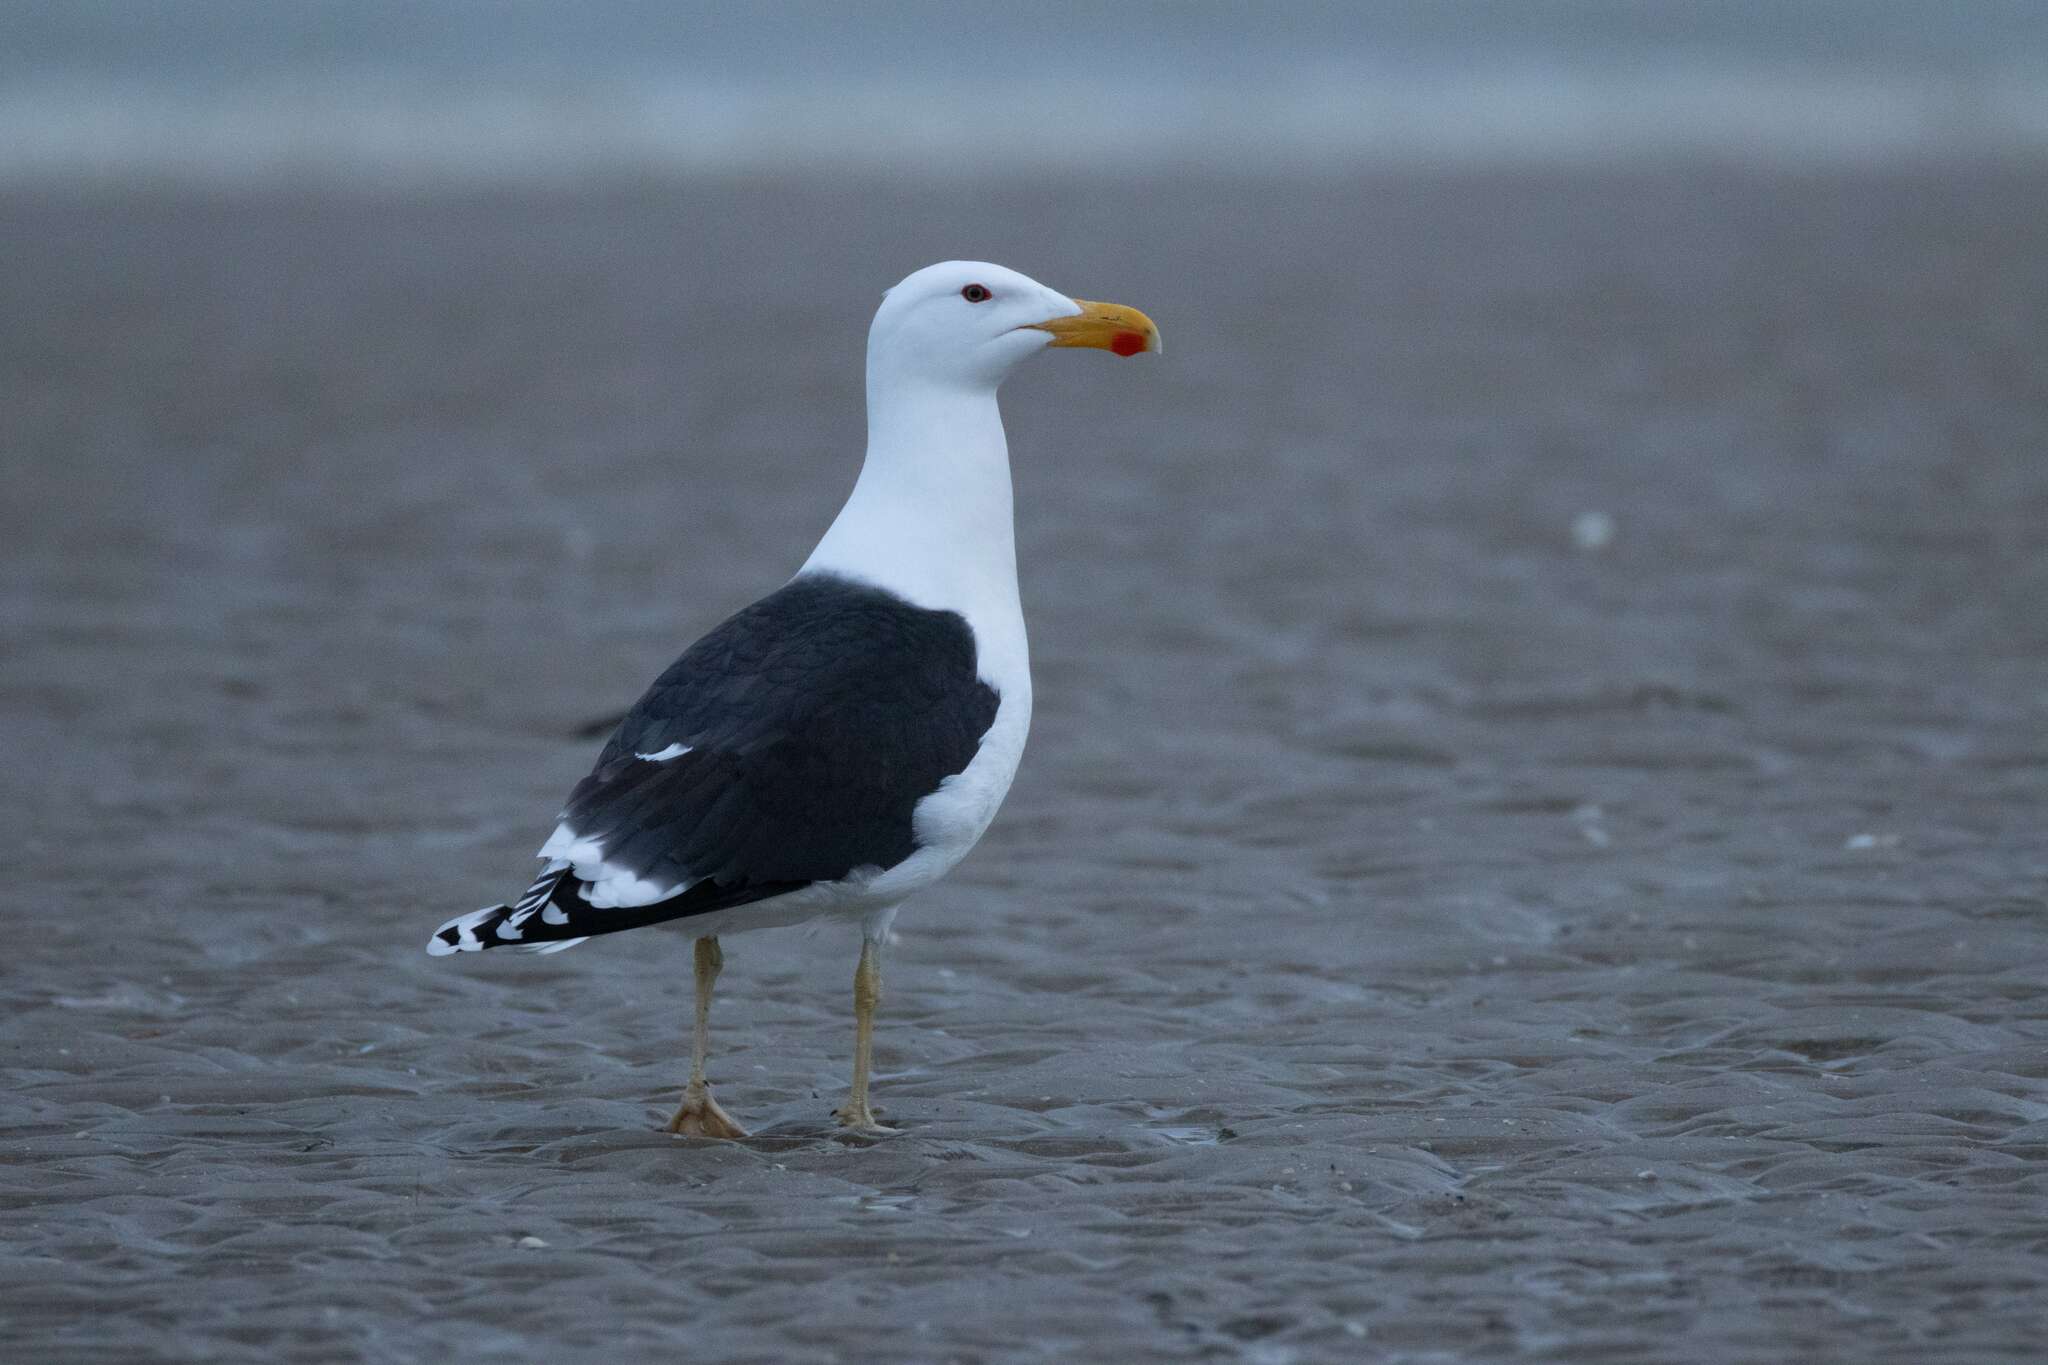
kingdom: Animalia
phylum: Chordata
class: Aves
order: Charadriiformes
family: Laridae
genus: Larus
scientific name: Larus marinus
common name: Great black-backed gull
